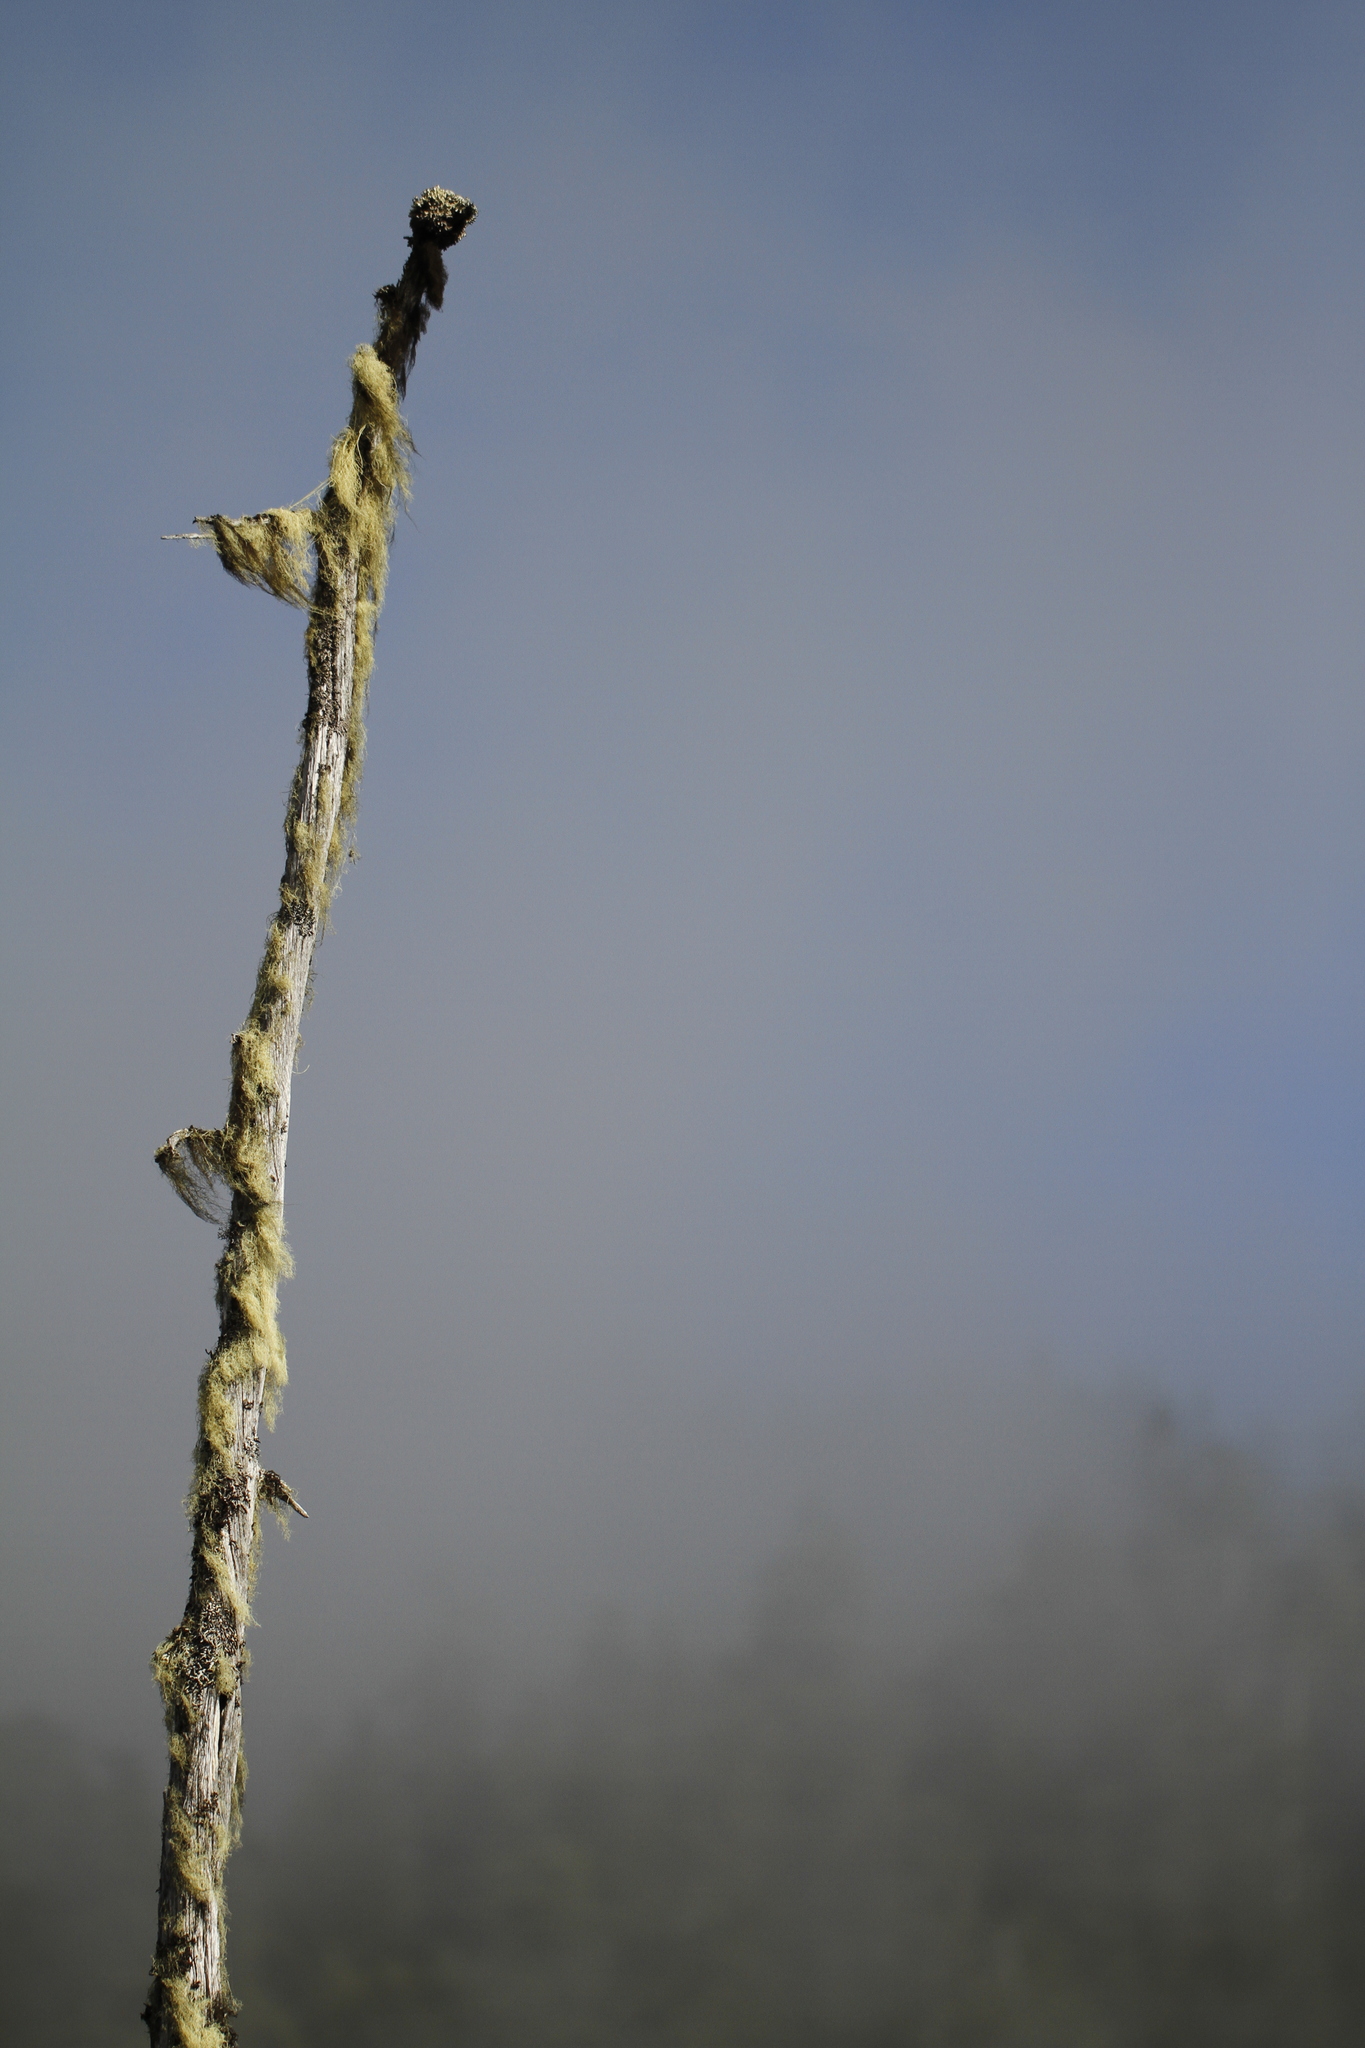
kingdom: Fungi
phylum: Ascomycota
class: Lecanoromycetes
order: Caliciales
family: Caliciaceae
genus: Acroscyphus
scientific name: Acroscyphus sphaerophoroides
